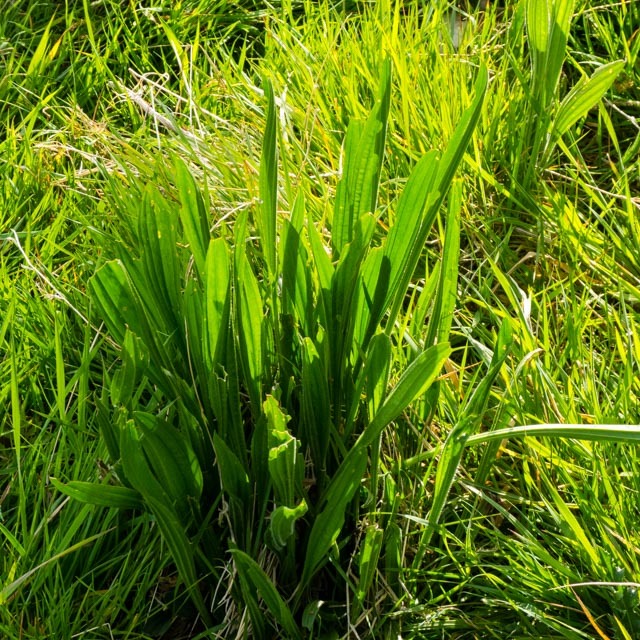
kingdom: Plantae
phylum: Tracheophyta
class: Magnoliopsida
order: Lamiales
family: Plantaginaceae
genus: Plantago
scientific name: Plantago lanceolata
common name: Ribwort plantain
